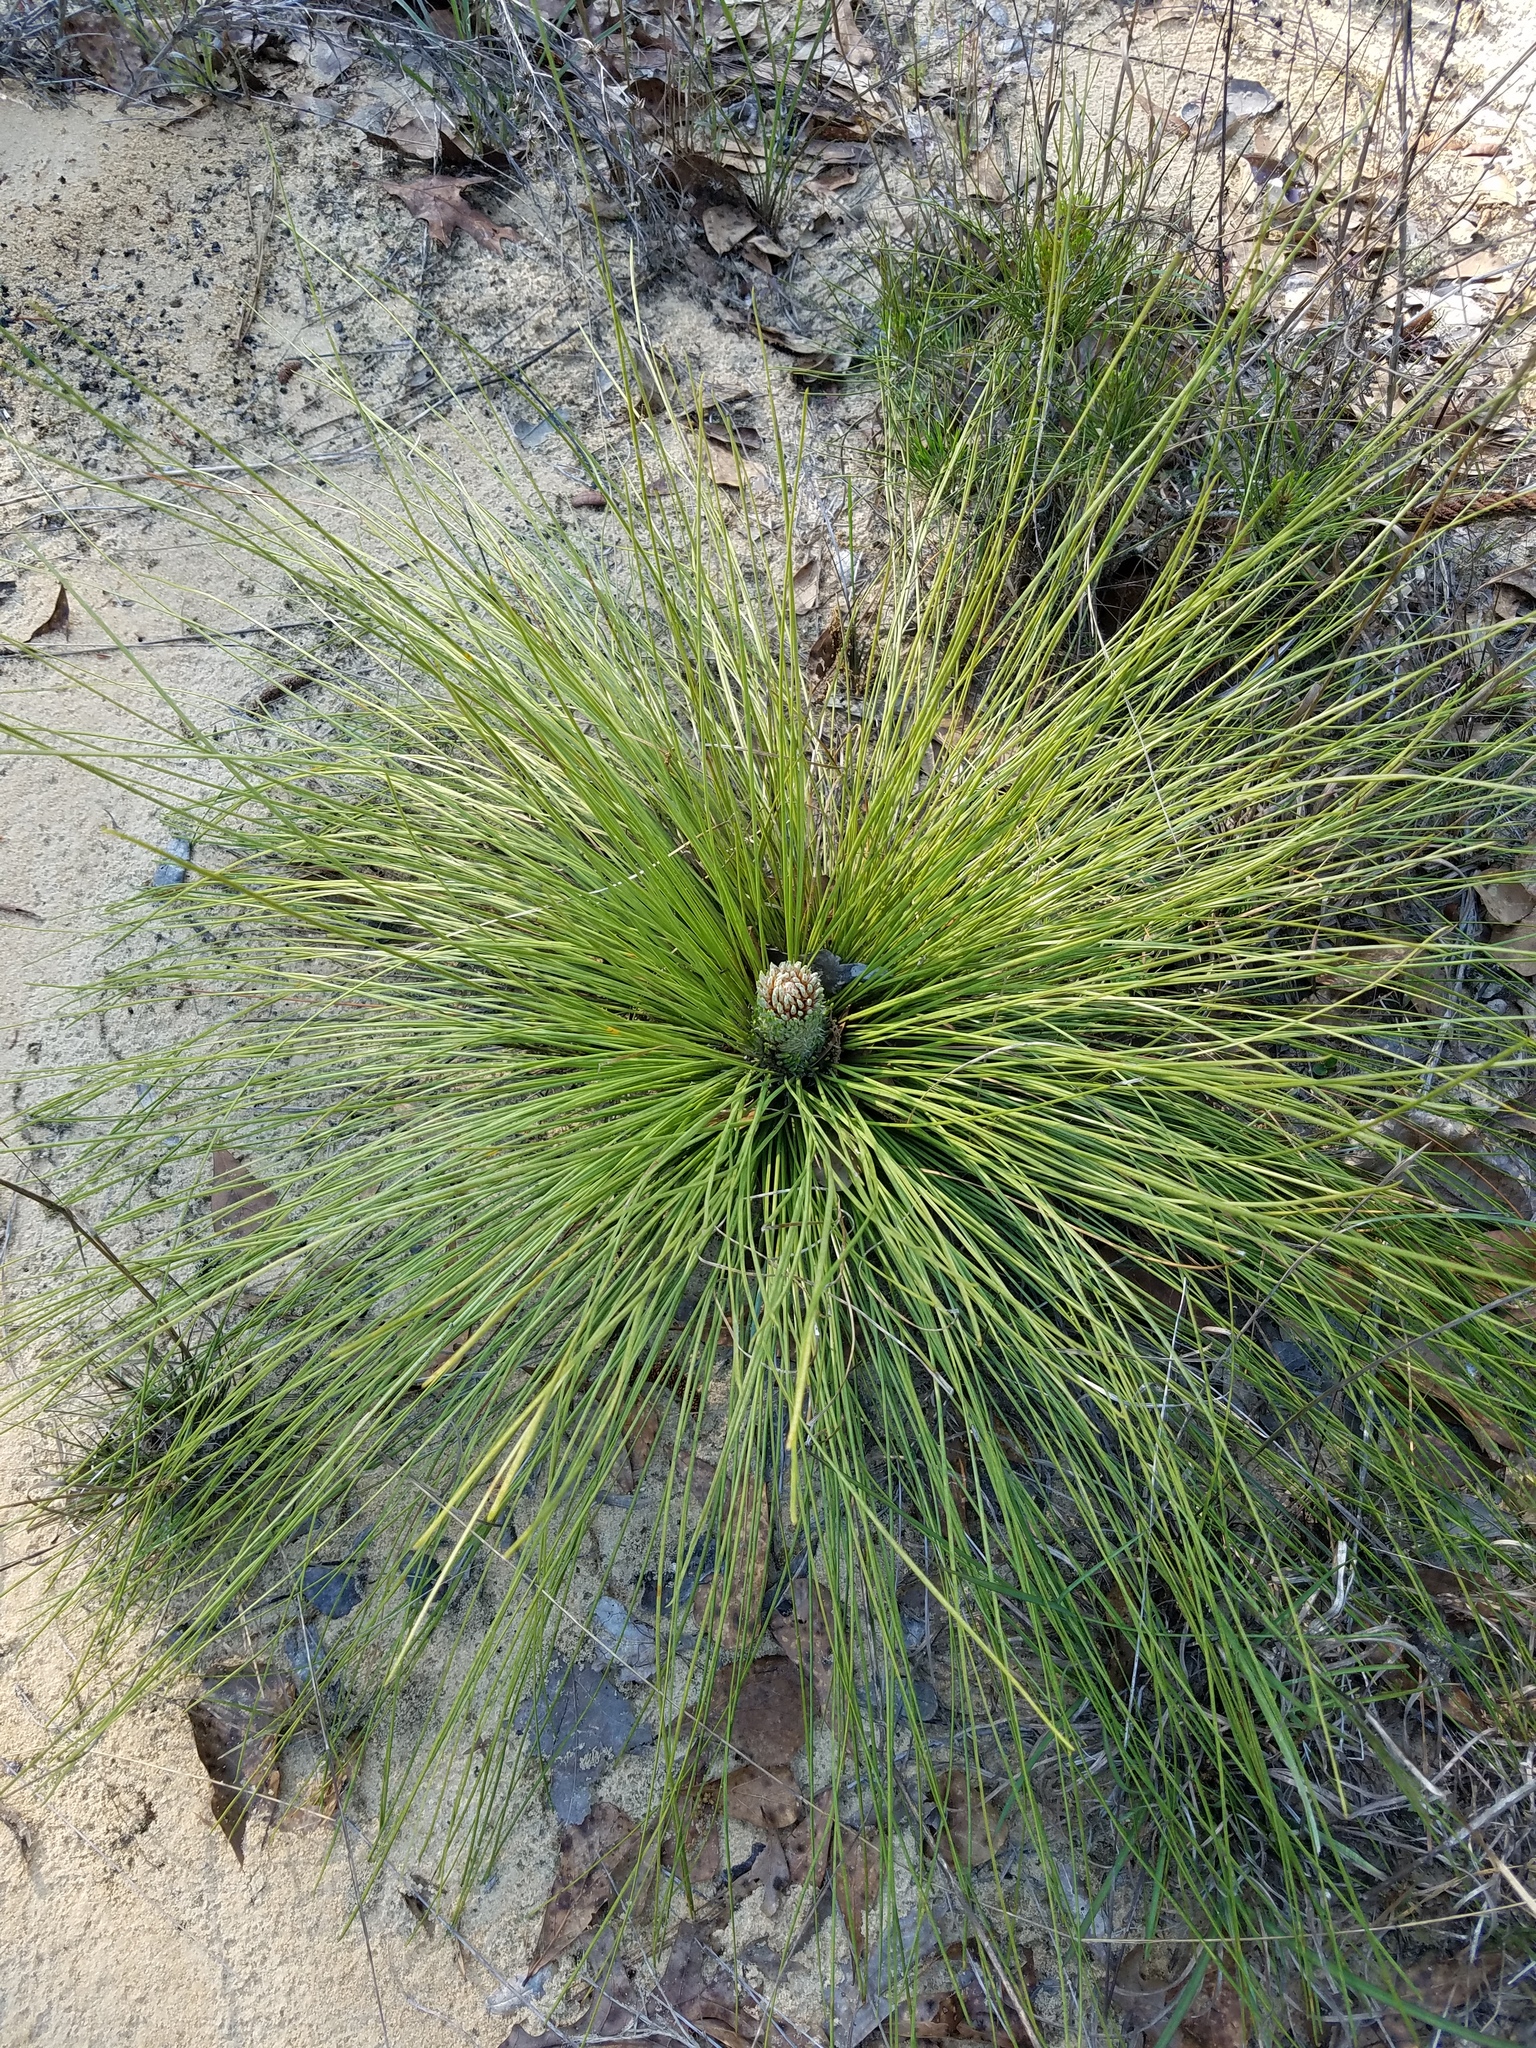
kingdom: Plantae
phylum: Tracheophyta
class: Pinopsida
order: Pinales
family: Pinaceae
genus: Pinus
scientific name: Pinus palustris
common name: Longleaf pine
